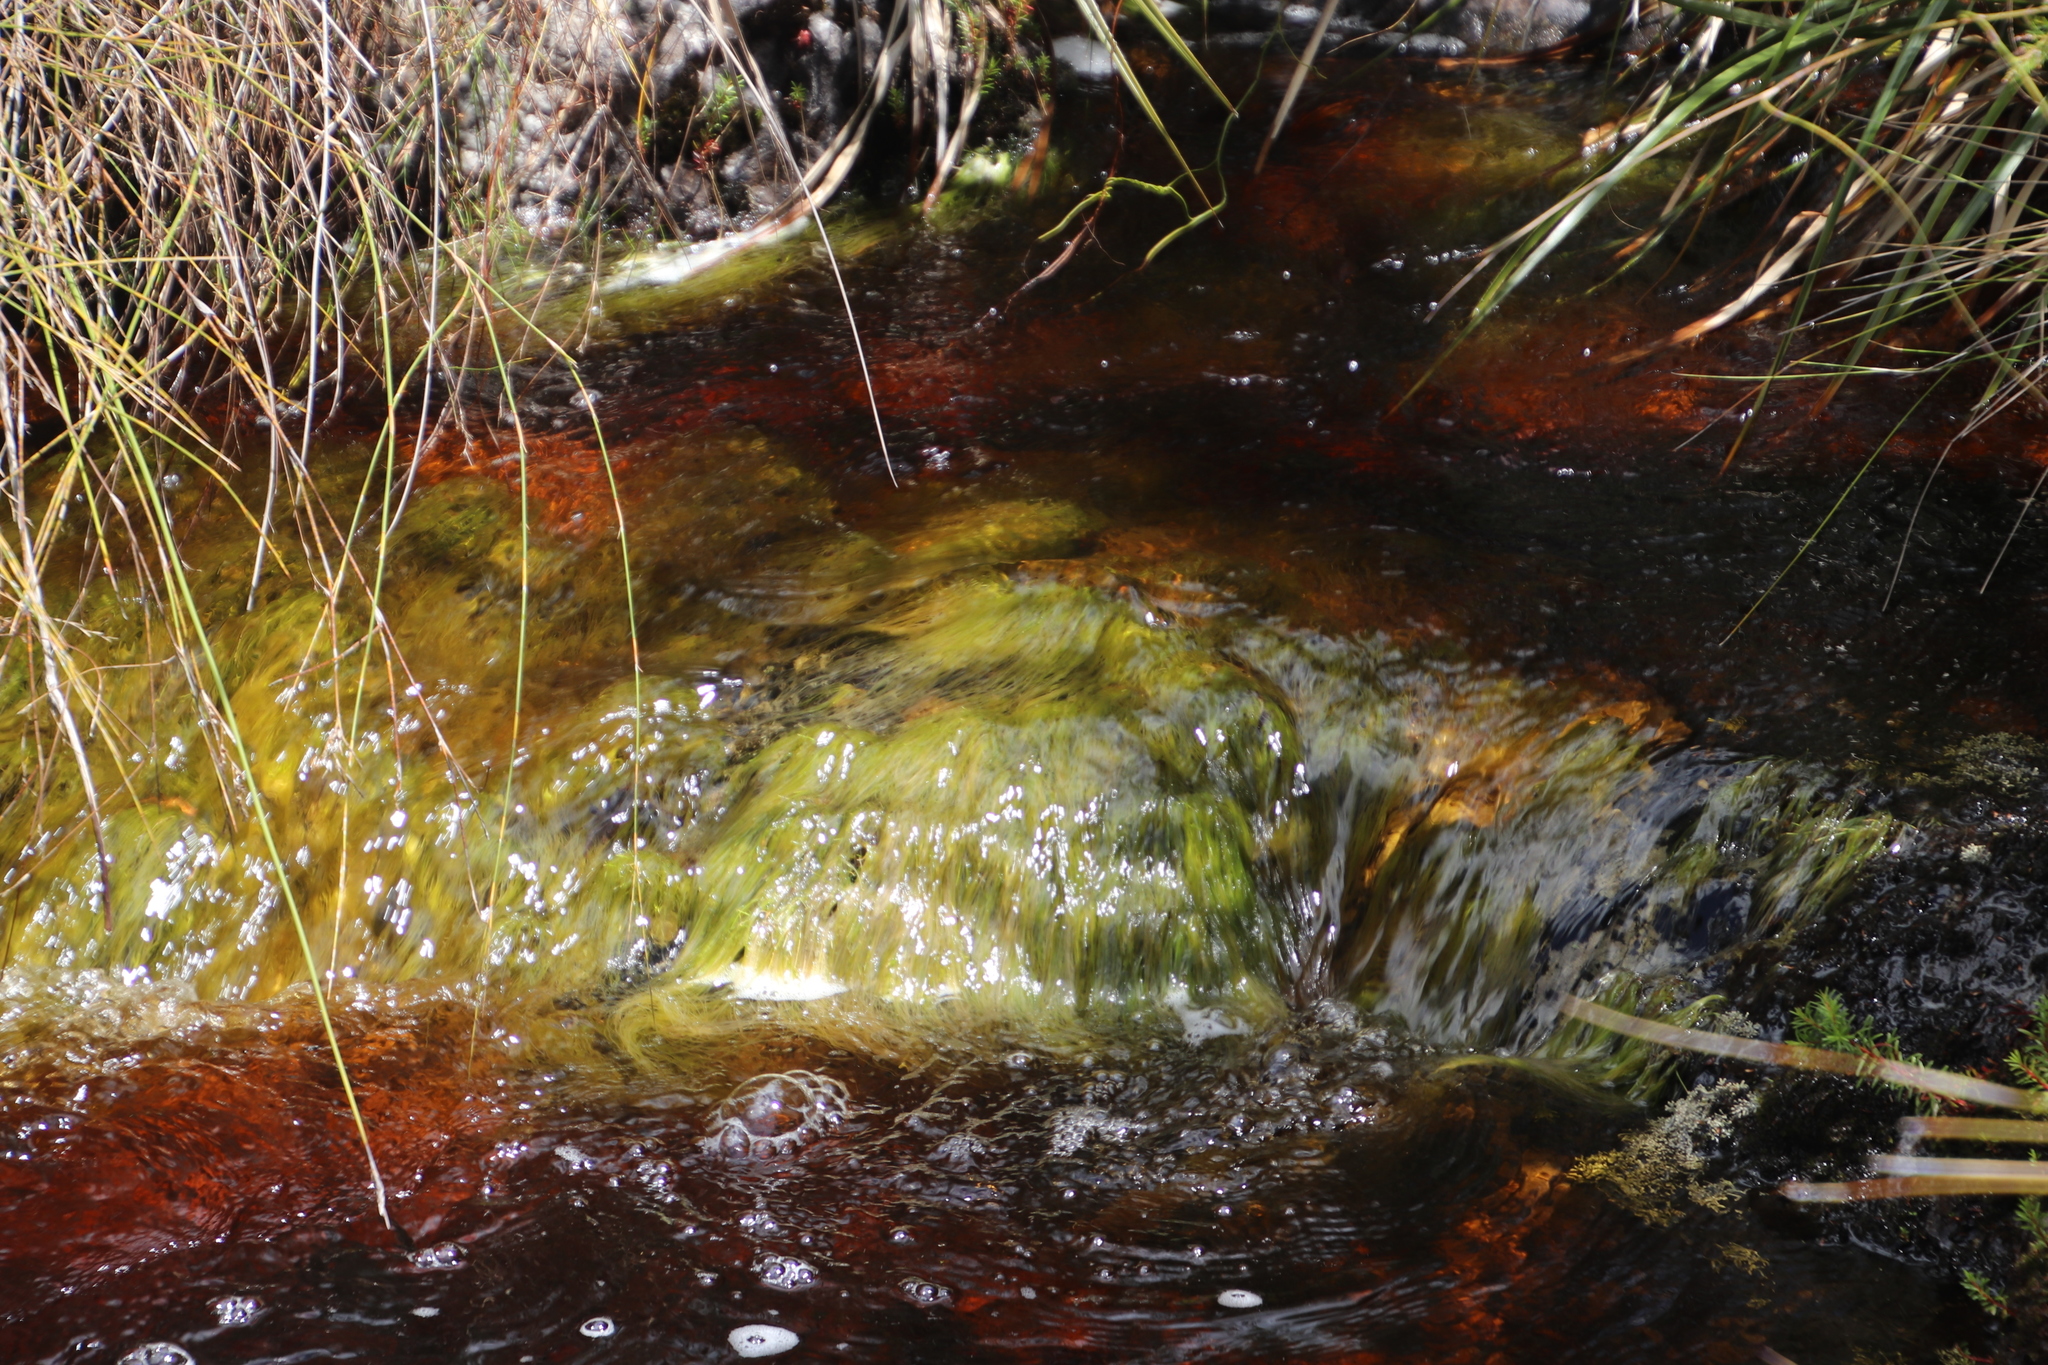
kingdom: Plantae
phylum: Tracheophyta
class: Liliopsida
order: Poales
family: Cyperaceae
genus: Isolepis
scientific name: Isolepis digitata
